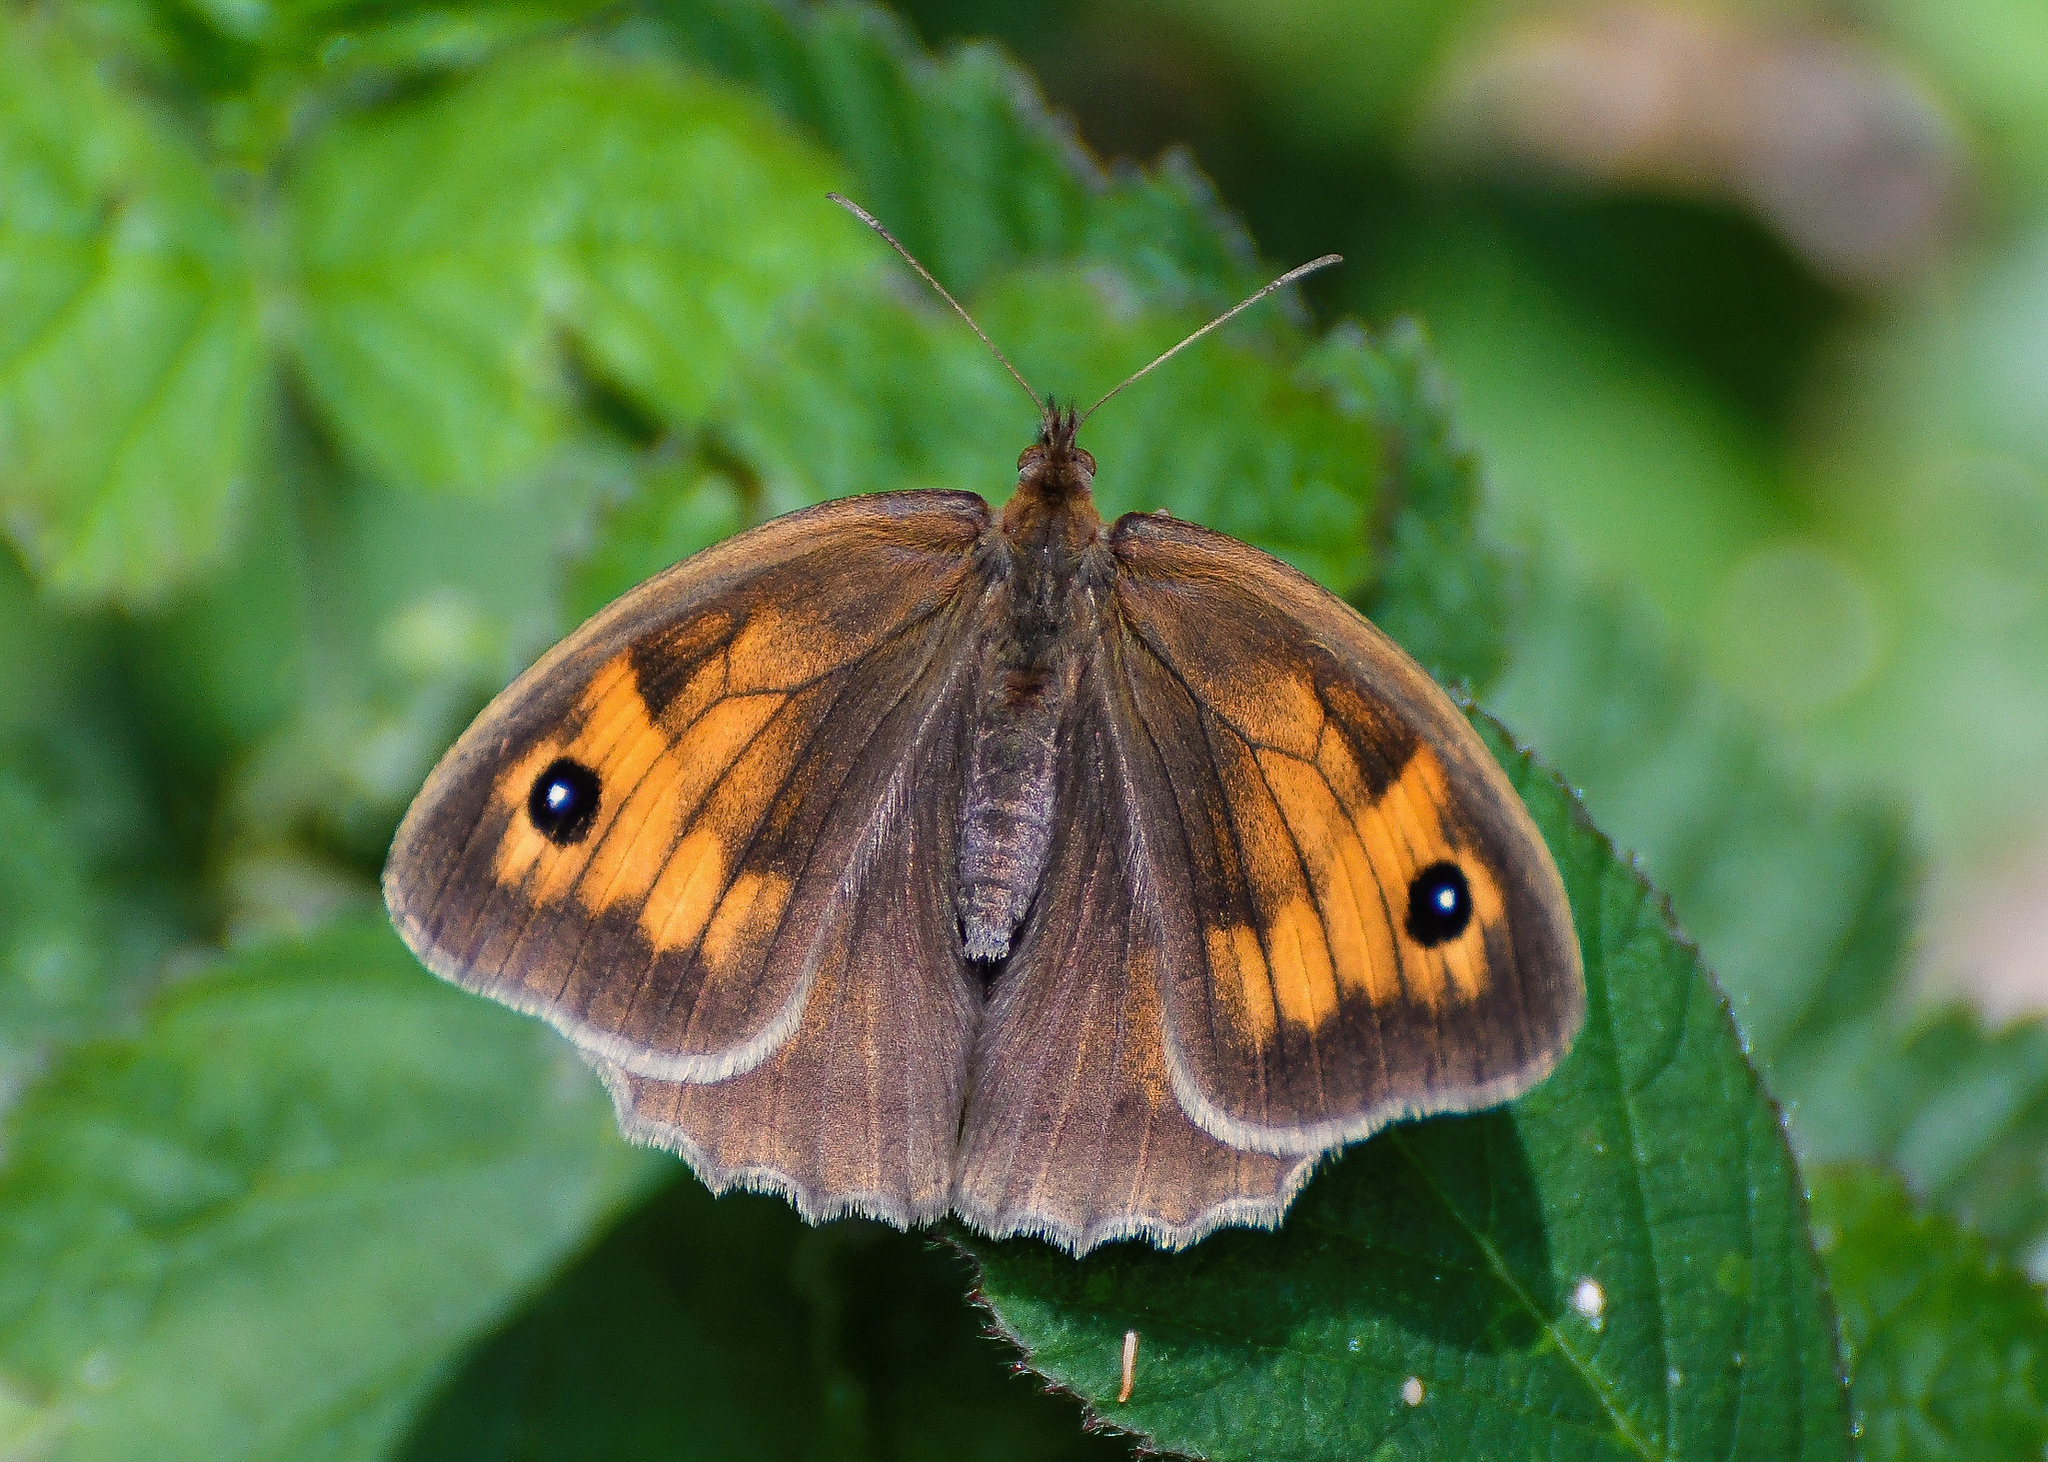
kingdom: Animalia
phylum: Arthropoda
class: Insecta
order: Lepidoptera
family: Nymphalidae
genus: Maniola
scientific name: Maniola jurtina
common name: Meadow brown
